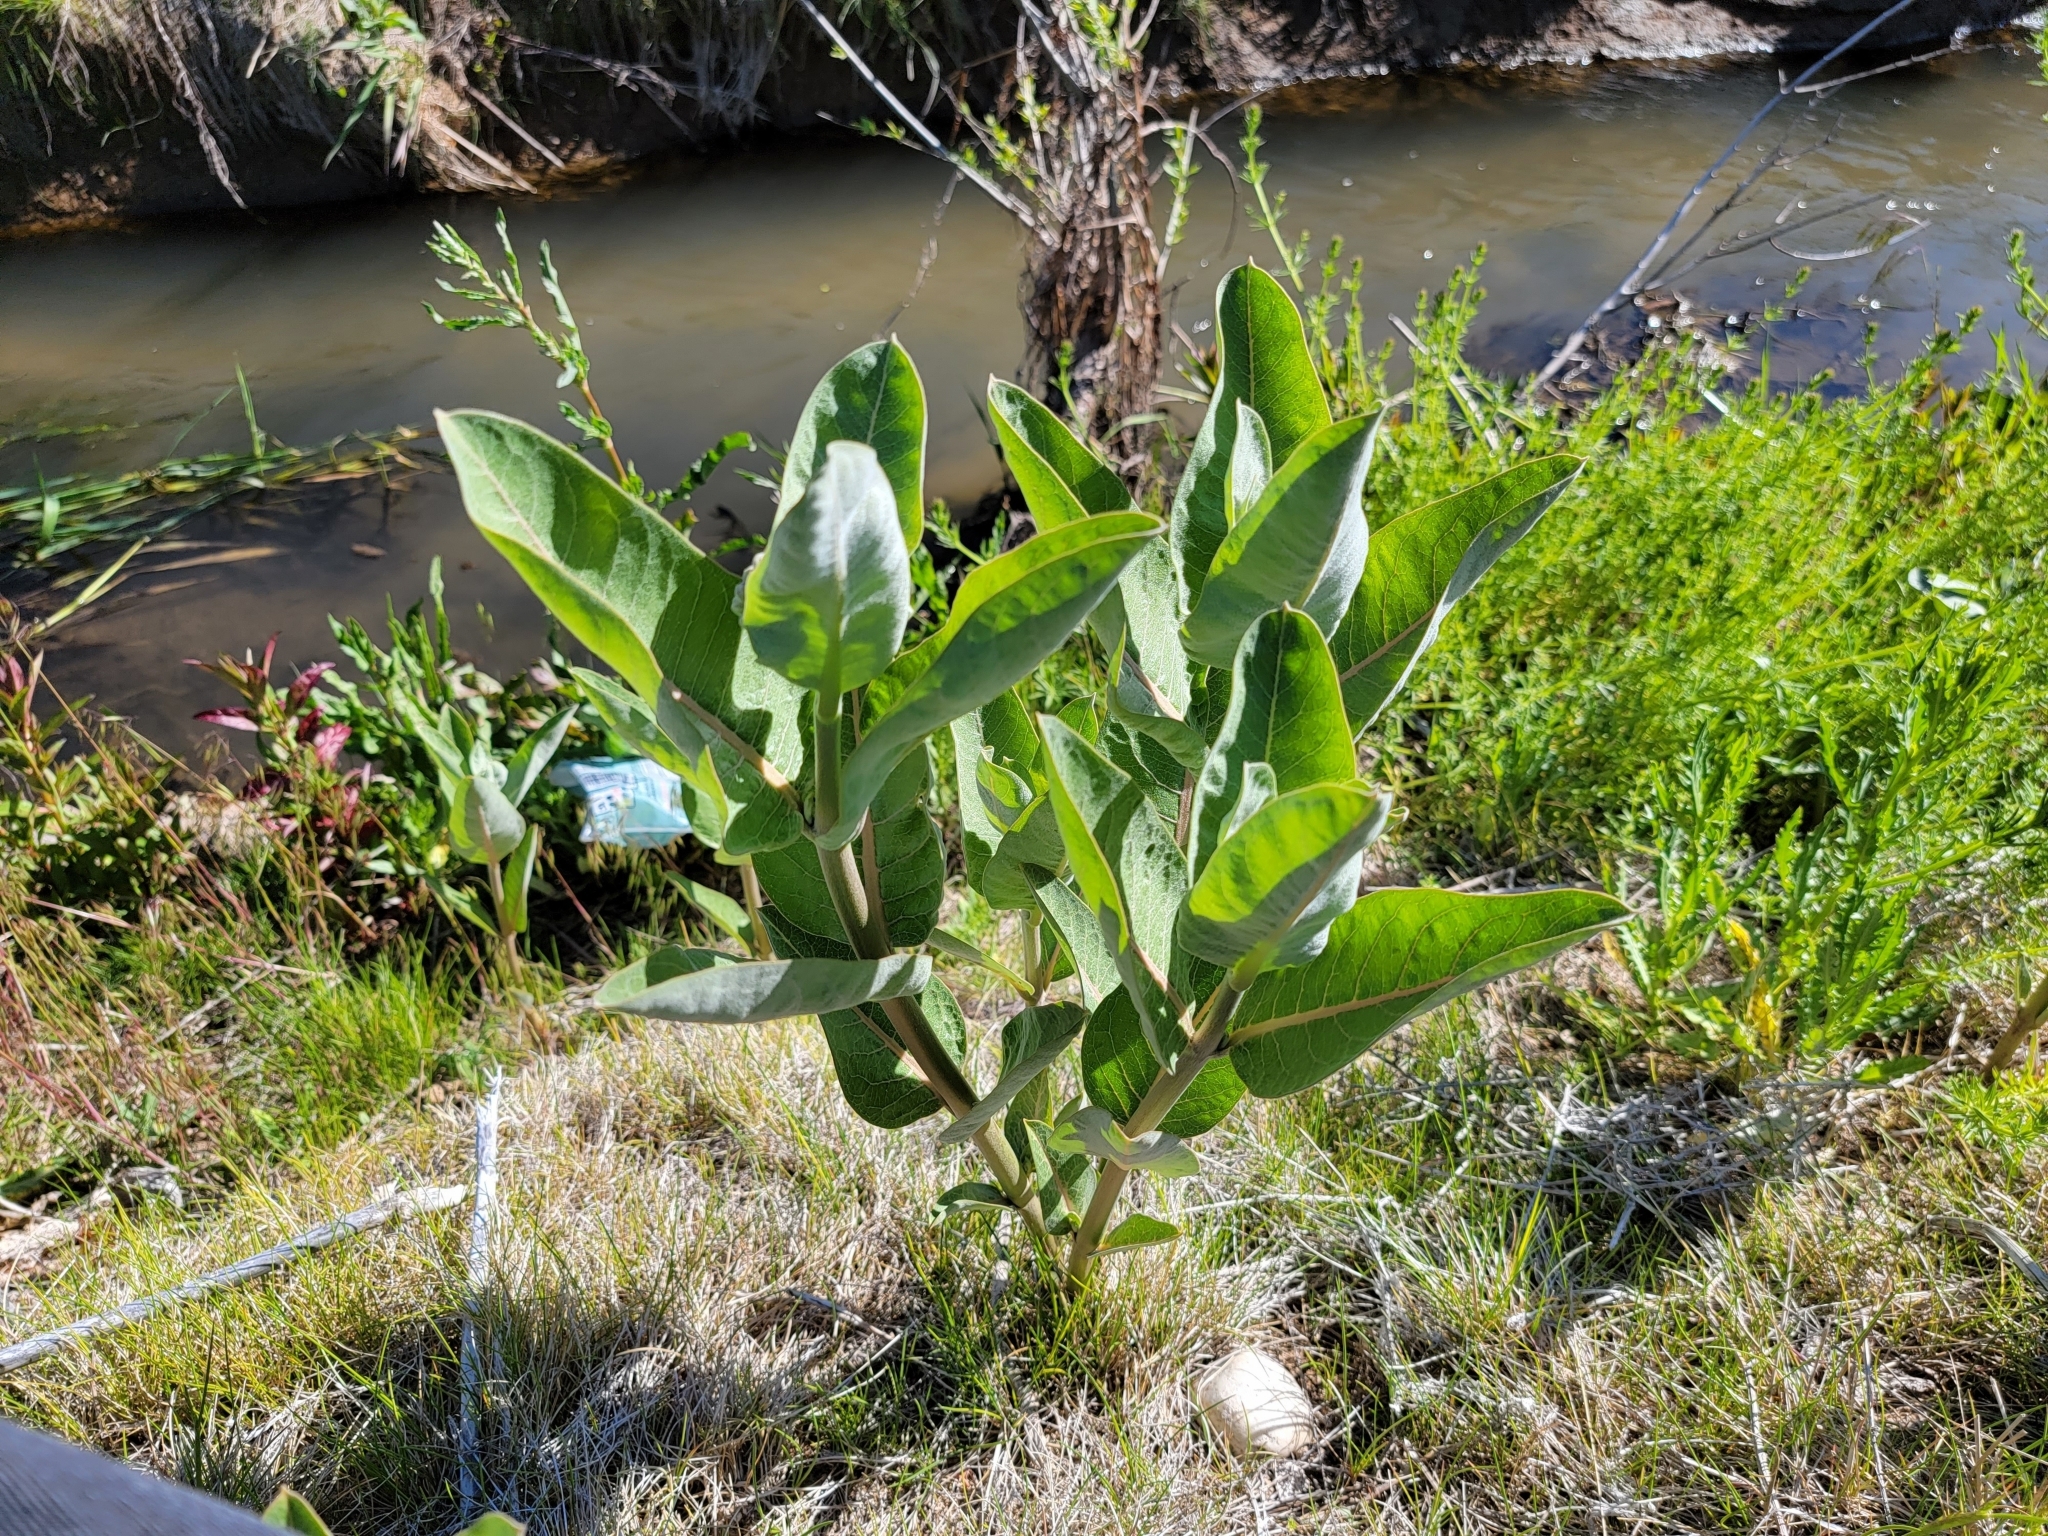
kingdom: Plantae
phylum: Tracheophyta
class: Magnoliopsida
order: Gentianales
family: Apocynaceae
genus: Asclepias
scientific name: Asclepias speciosa
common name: Showy milkweed
